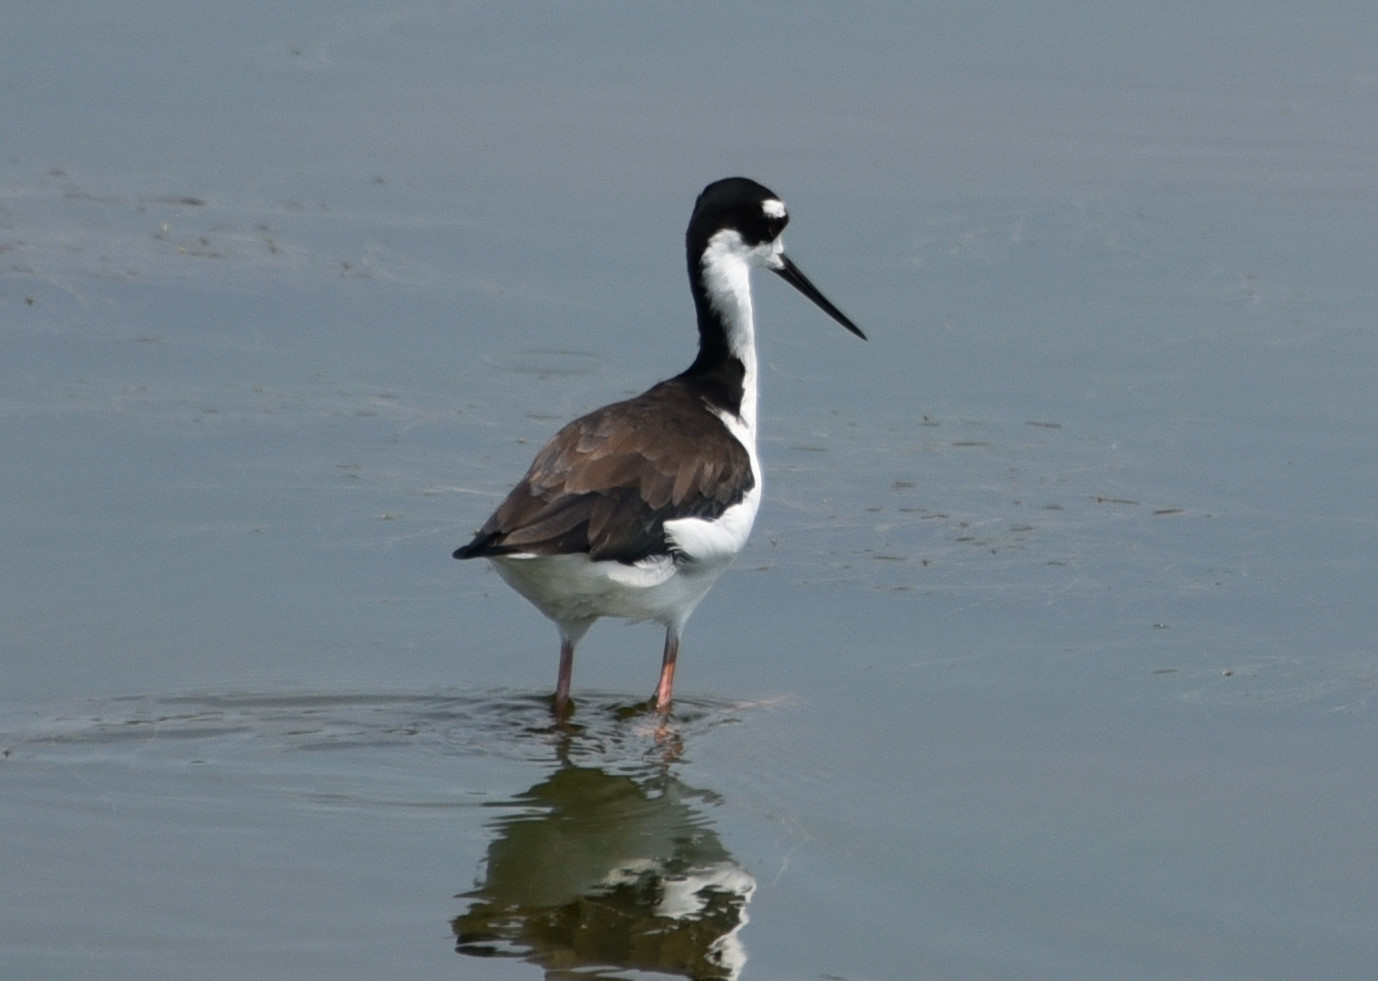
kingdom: Animalia
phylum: Chordata
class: Aves
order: Charadriiformes
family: Recurvirostridae
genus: Himantopus
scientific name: Himantopus mexicanus
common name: Black-necked stilt
